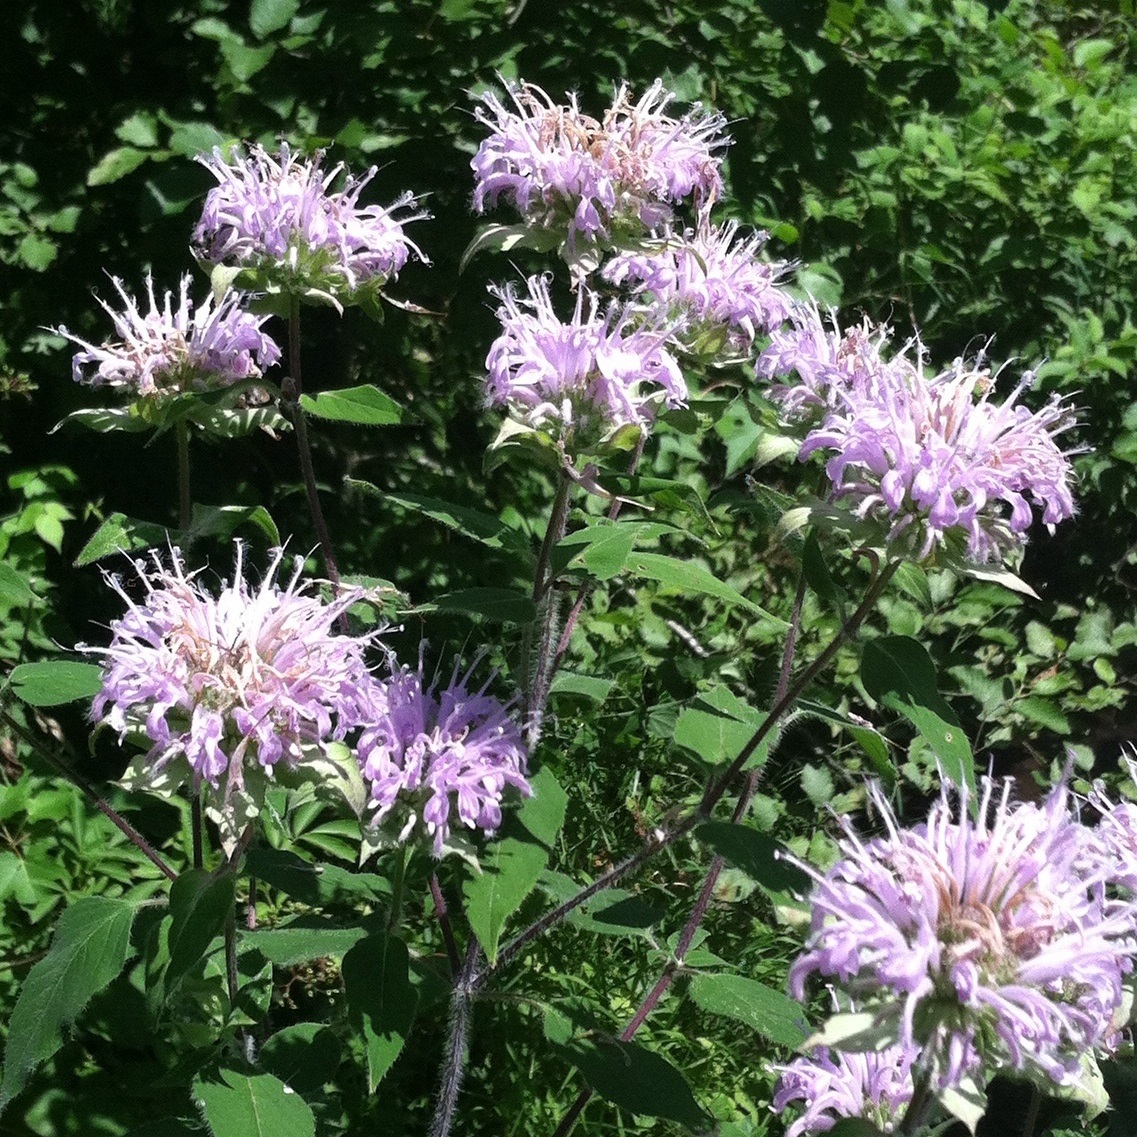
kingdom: Plantae
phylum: Tracheophyta
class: Magnoliopsida
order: Lamiales
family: Lamiaceae
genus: Monarda
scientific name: Monarda fistulosa
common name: Purple beebalm
